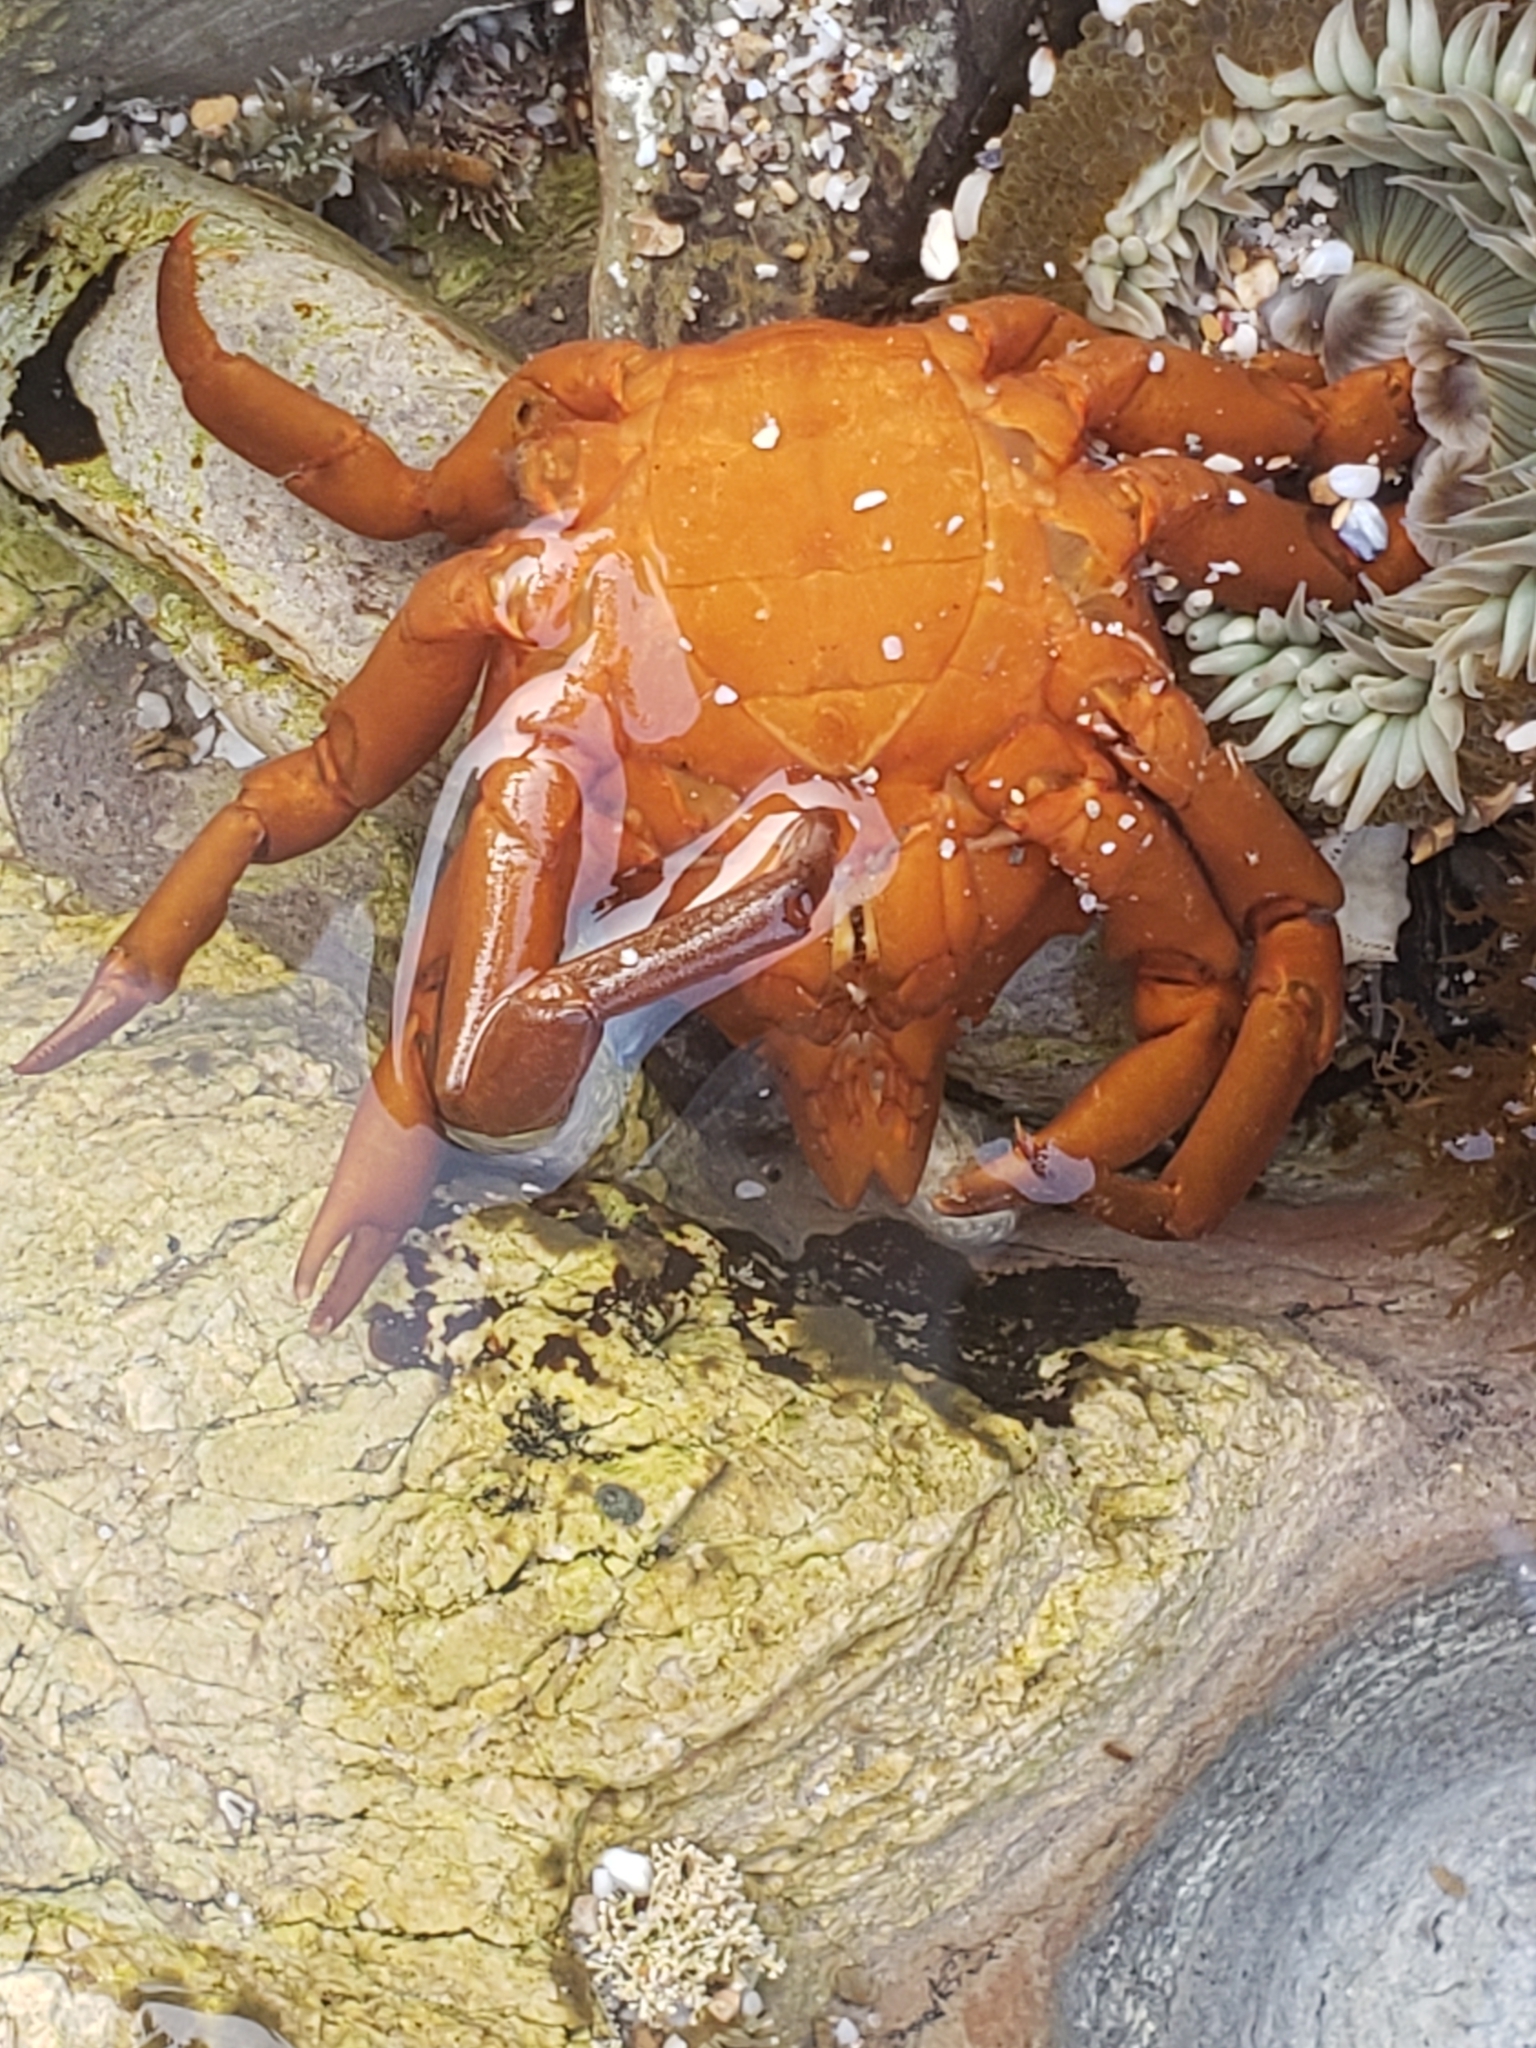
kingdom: Animalia
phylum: Arthropoda
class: Malacostraca
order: Decapoda
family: Epialtidae
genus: Taliepus
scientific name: Taliepus nuttallii
